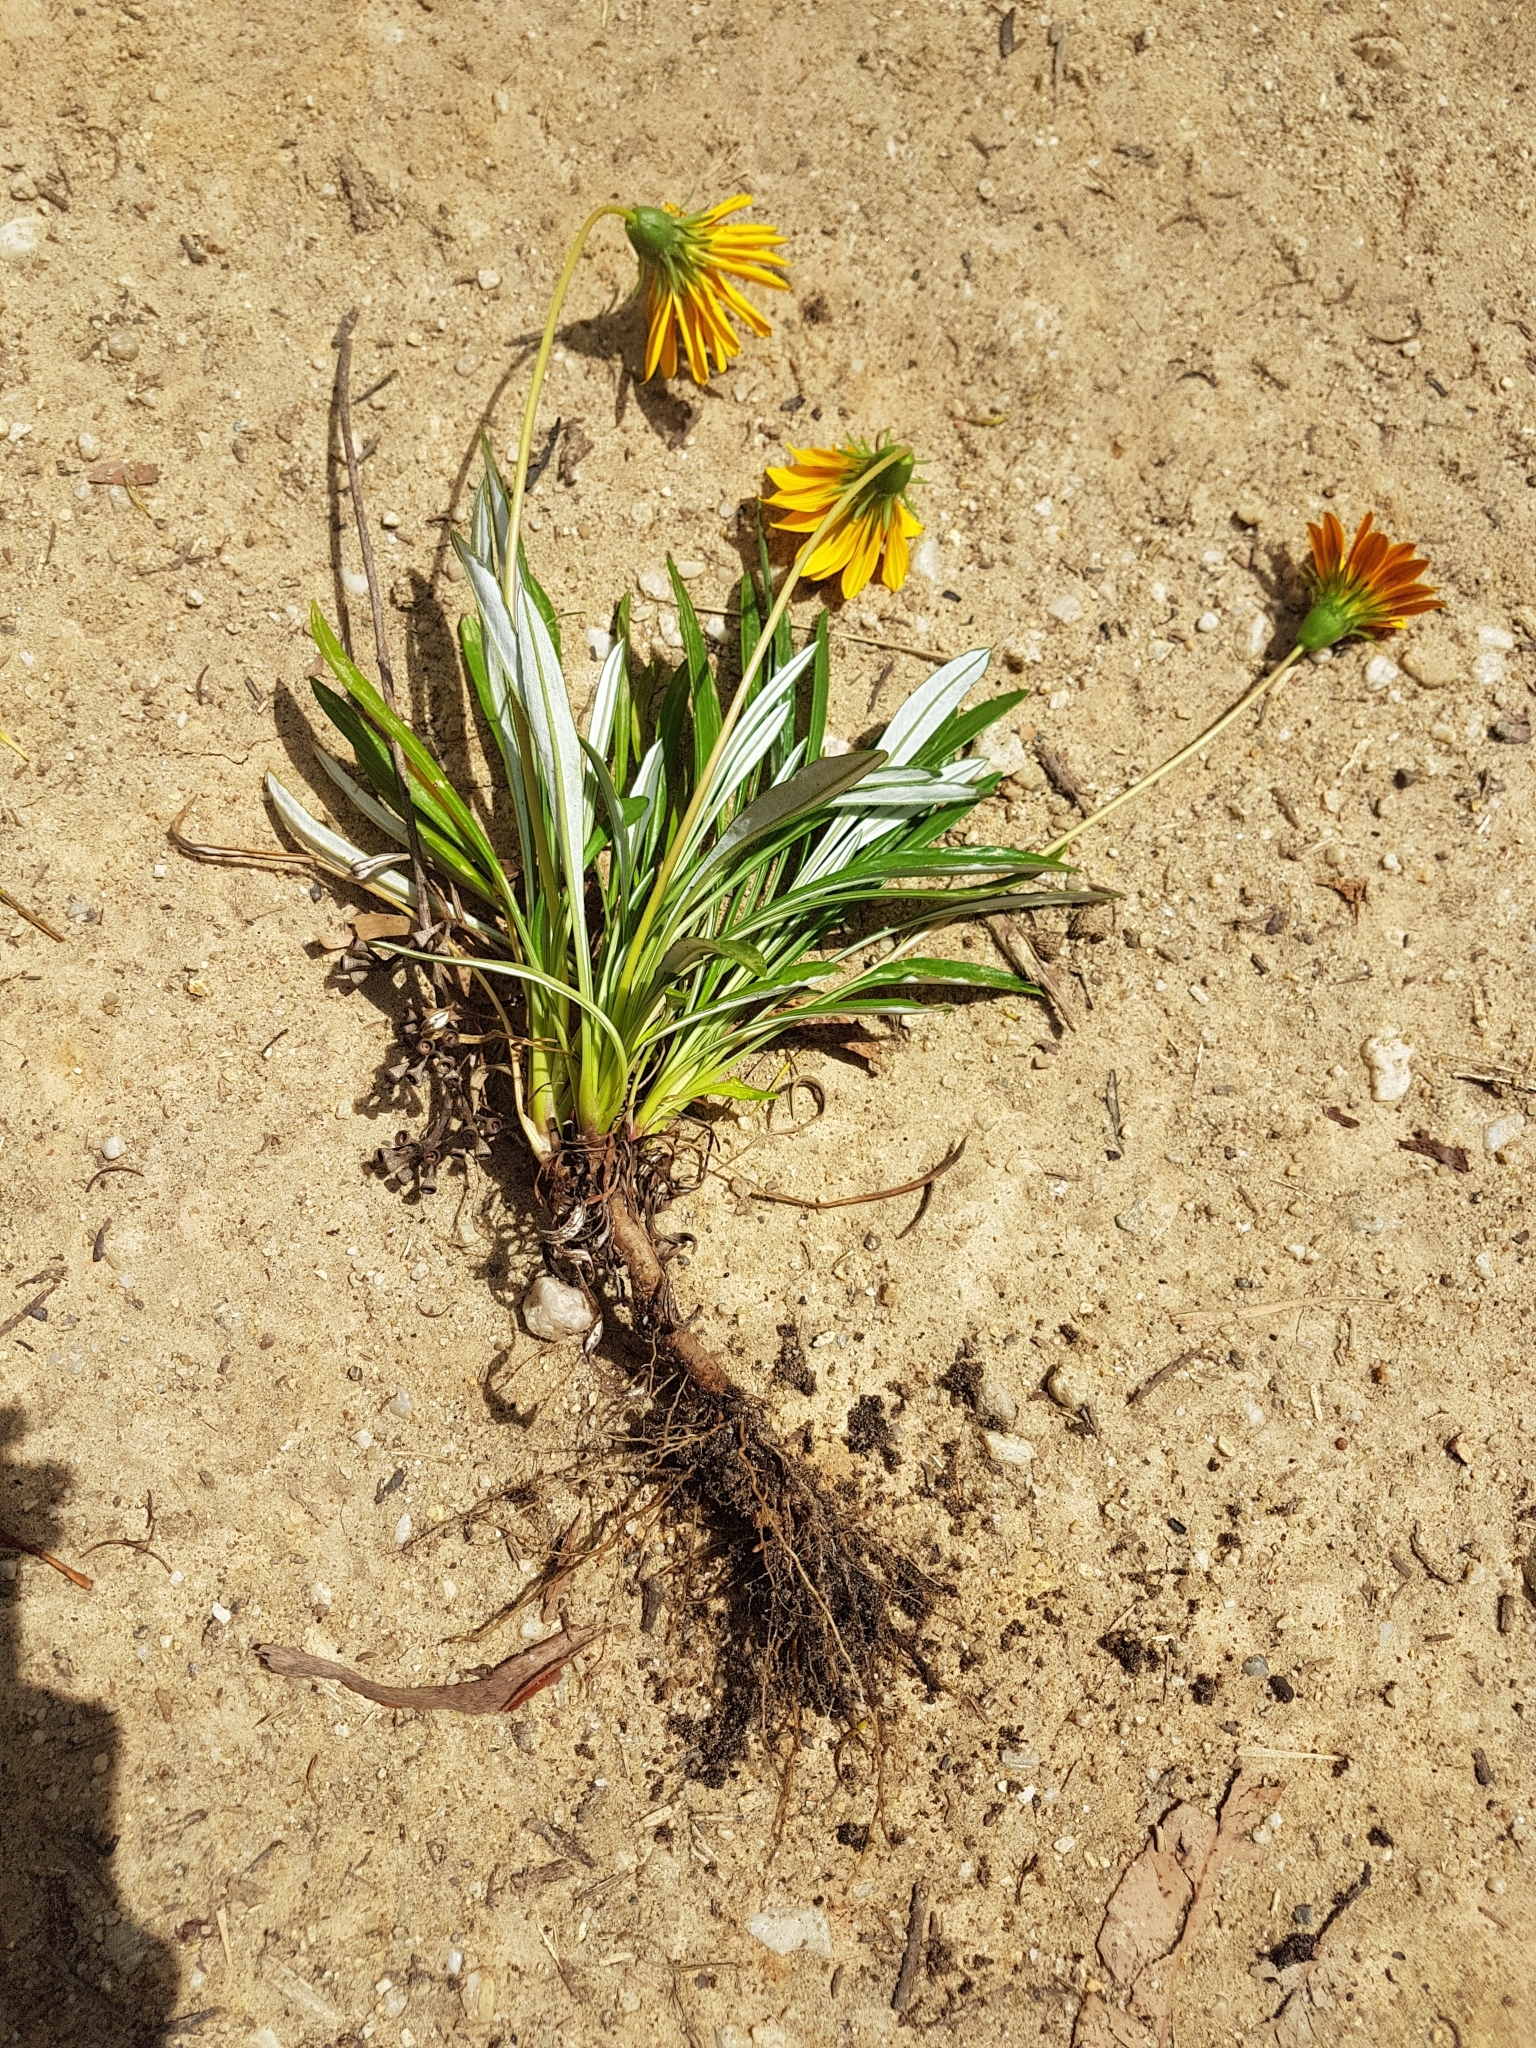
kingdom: Plantae
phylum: Tracheophyta
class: Magnoliopsida
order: Asterales
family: Asteraceae
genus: Gazania
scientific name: Gazania splendens
